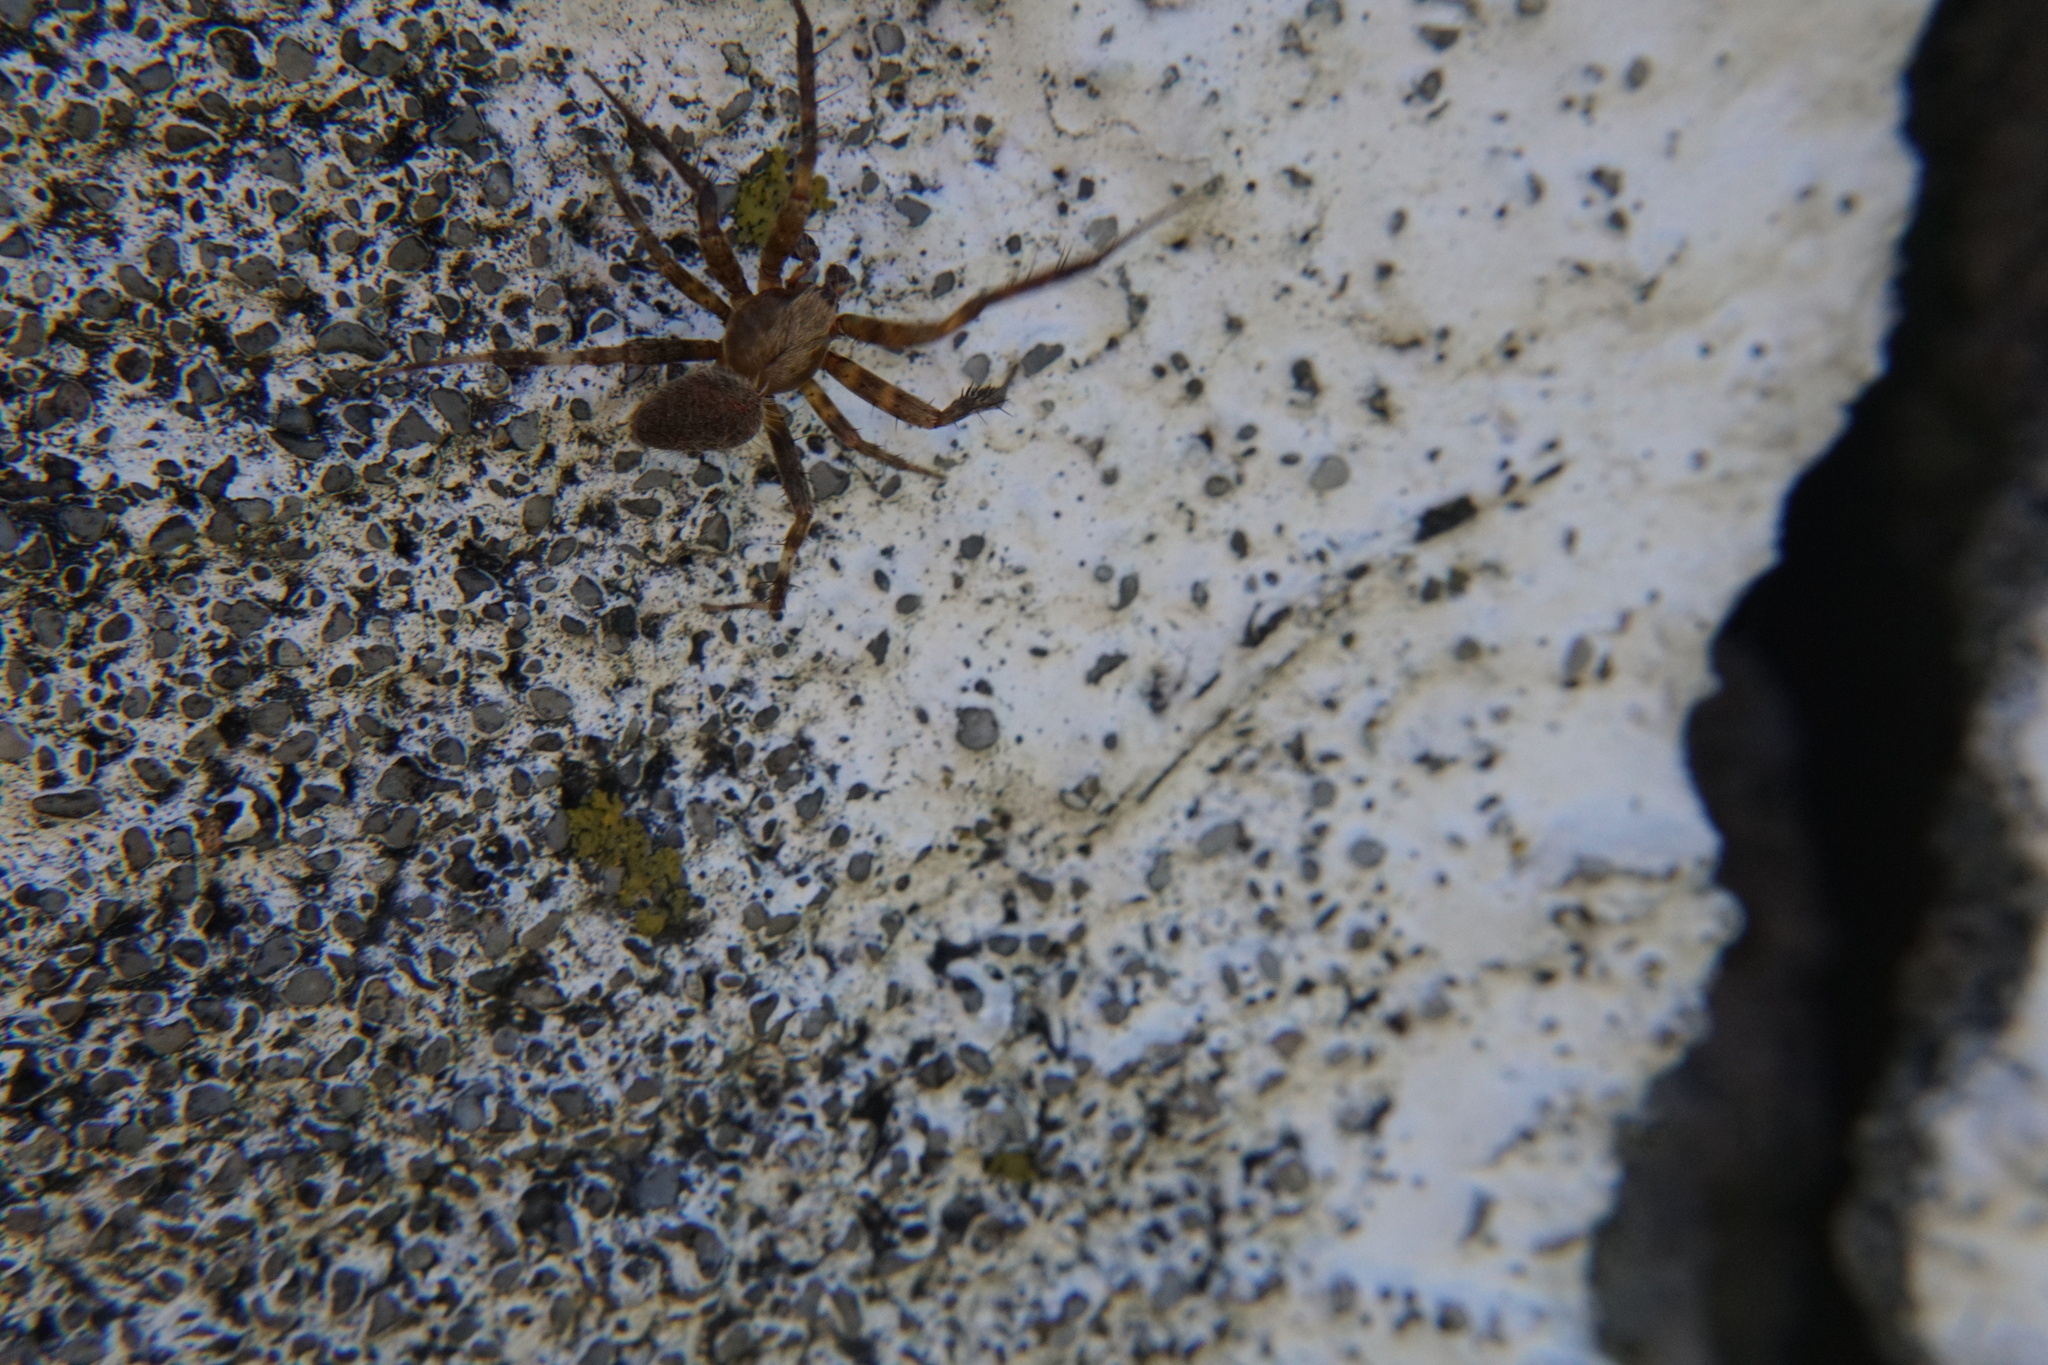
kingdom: Animalia
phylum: Arthropoda
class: Arachnida
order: Araneae
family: Araneidae
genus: Neoscona
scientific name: Neoscona crucifera
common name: Spotted orbweaver
